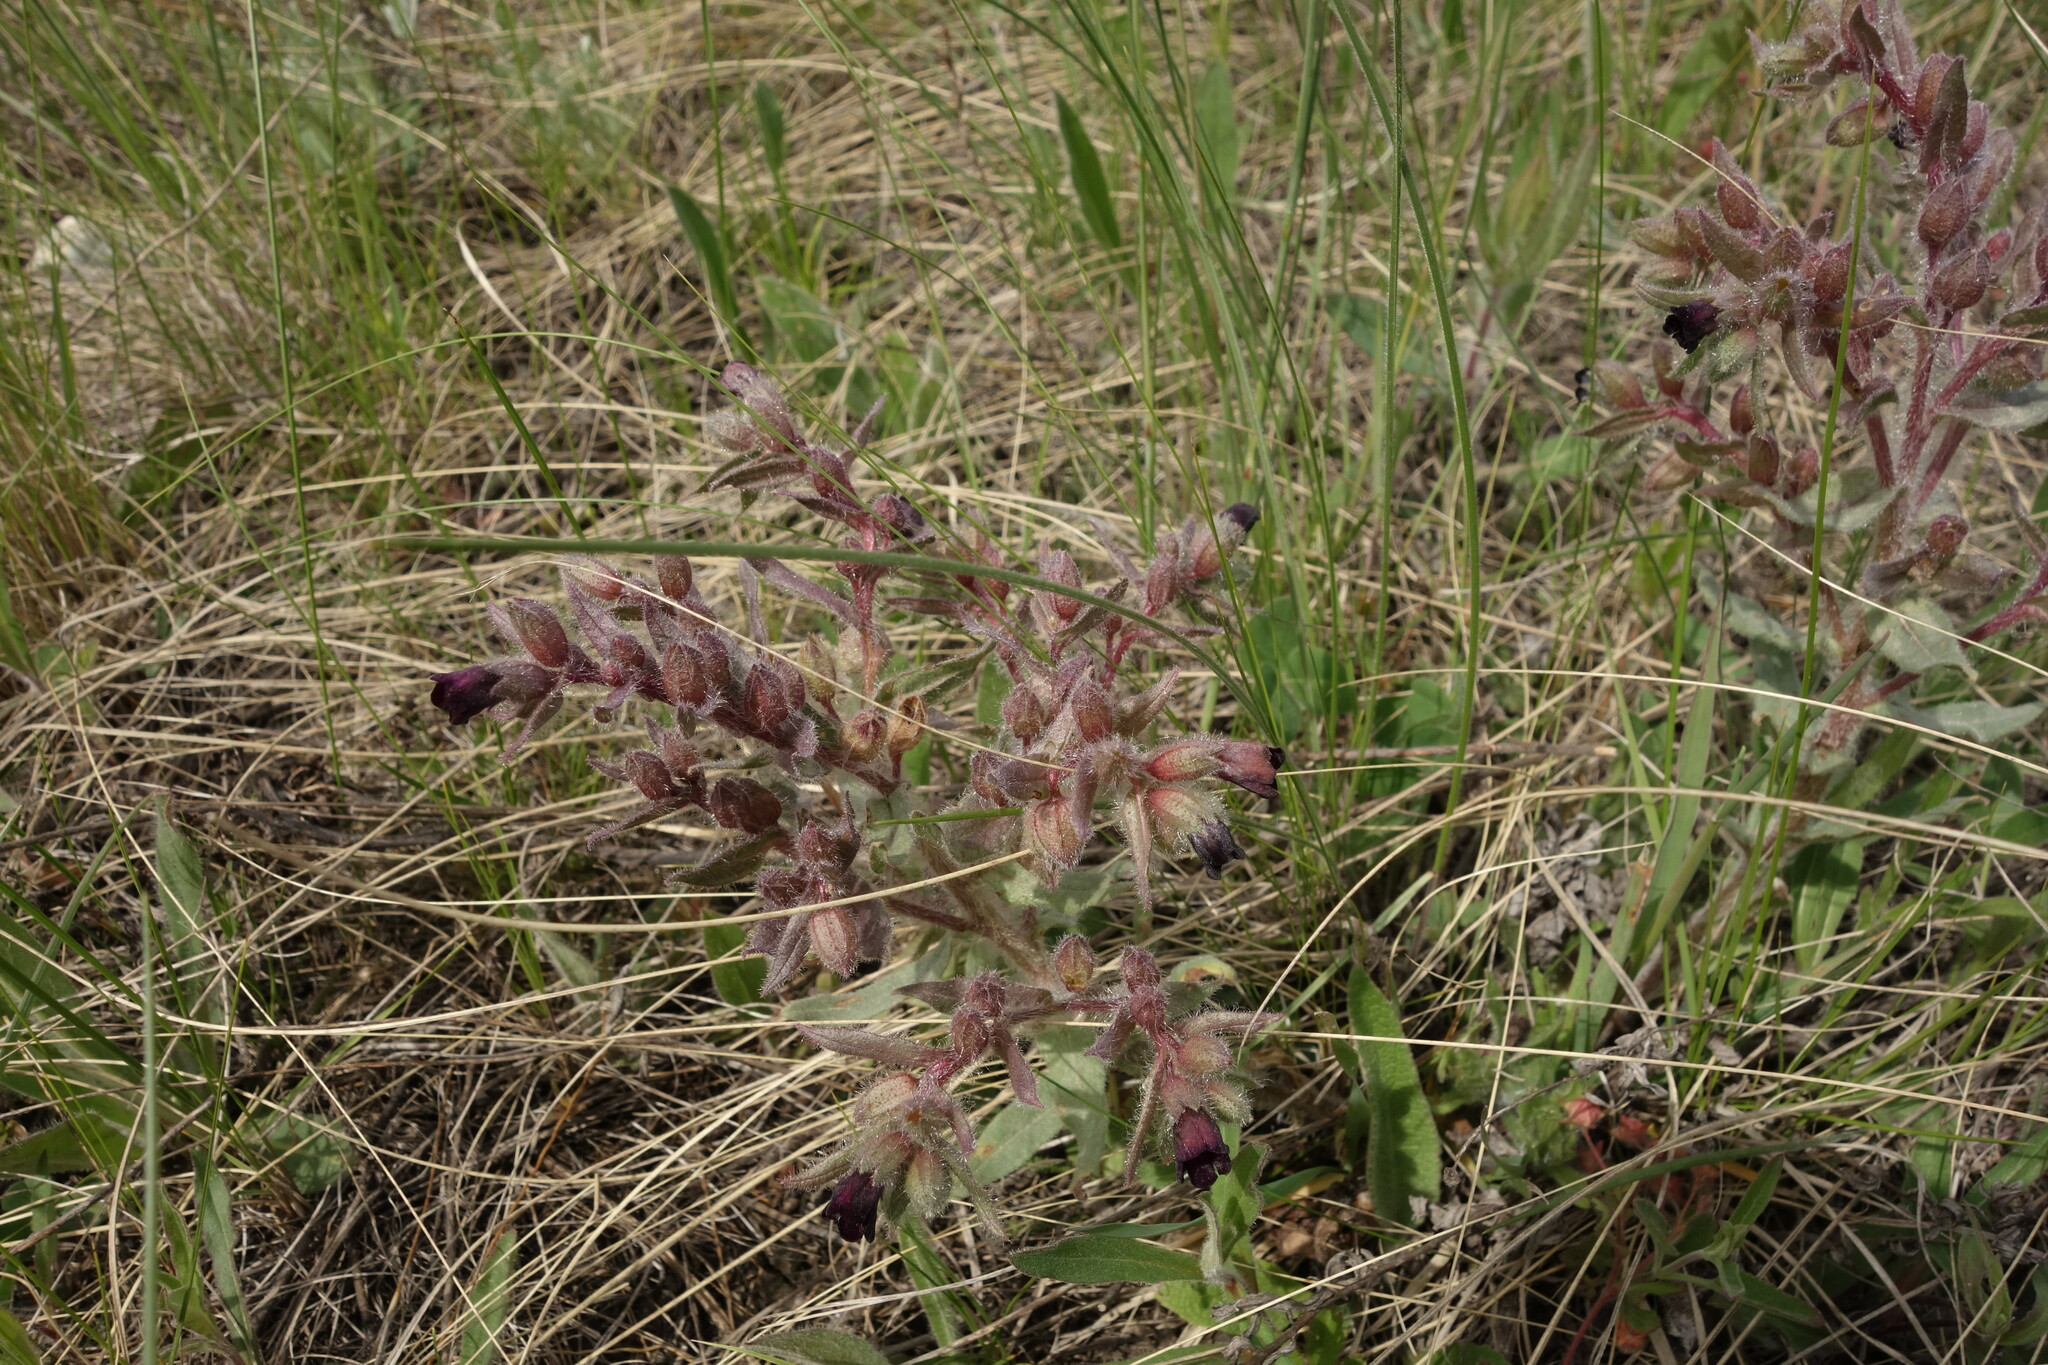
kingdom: Plantae
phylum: Tracheophyta
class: Magnoliopsida
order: Boraginales
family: Boraginaceae
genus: Nonea
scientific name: Nonea pulla
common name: Brown nonea
